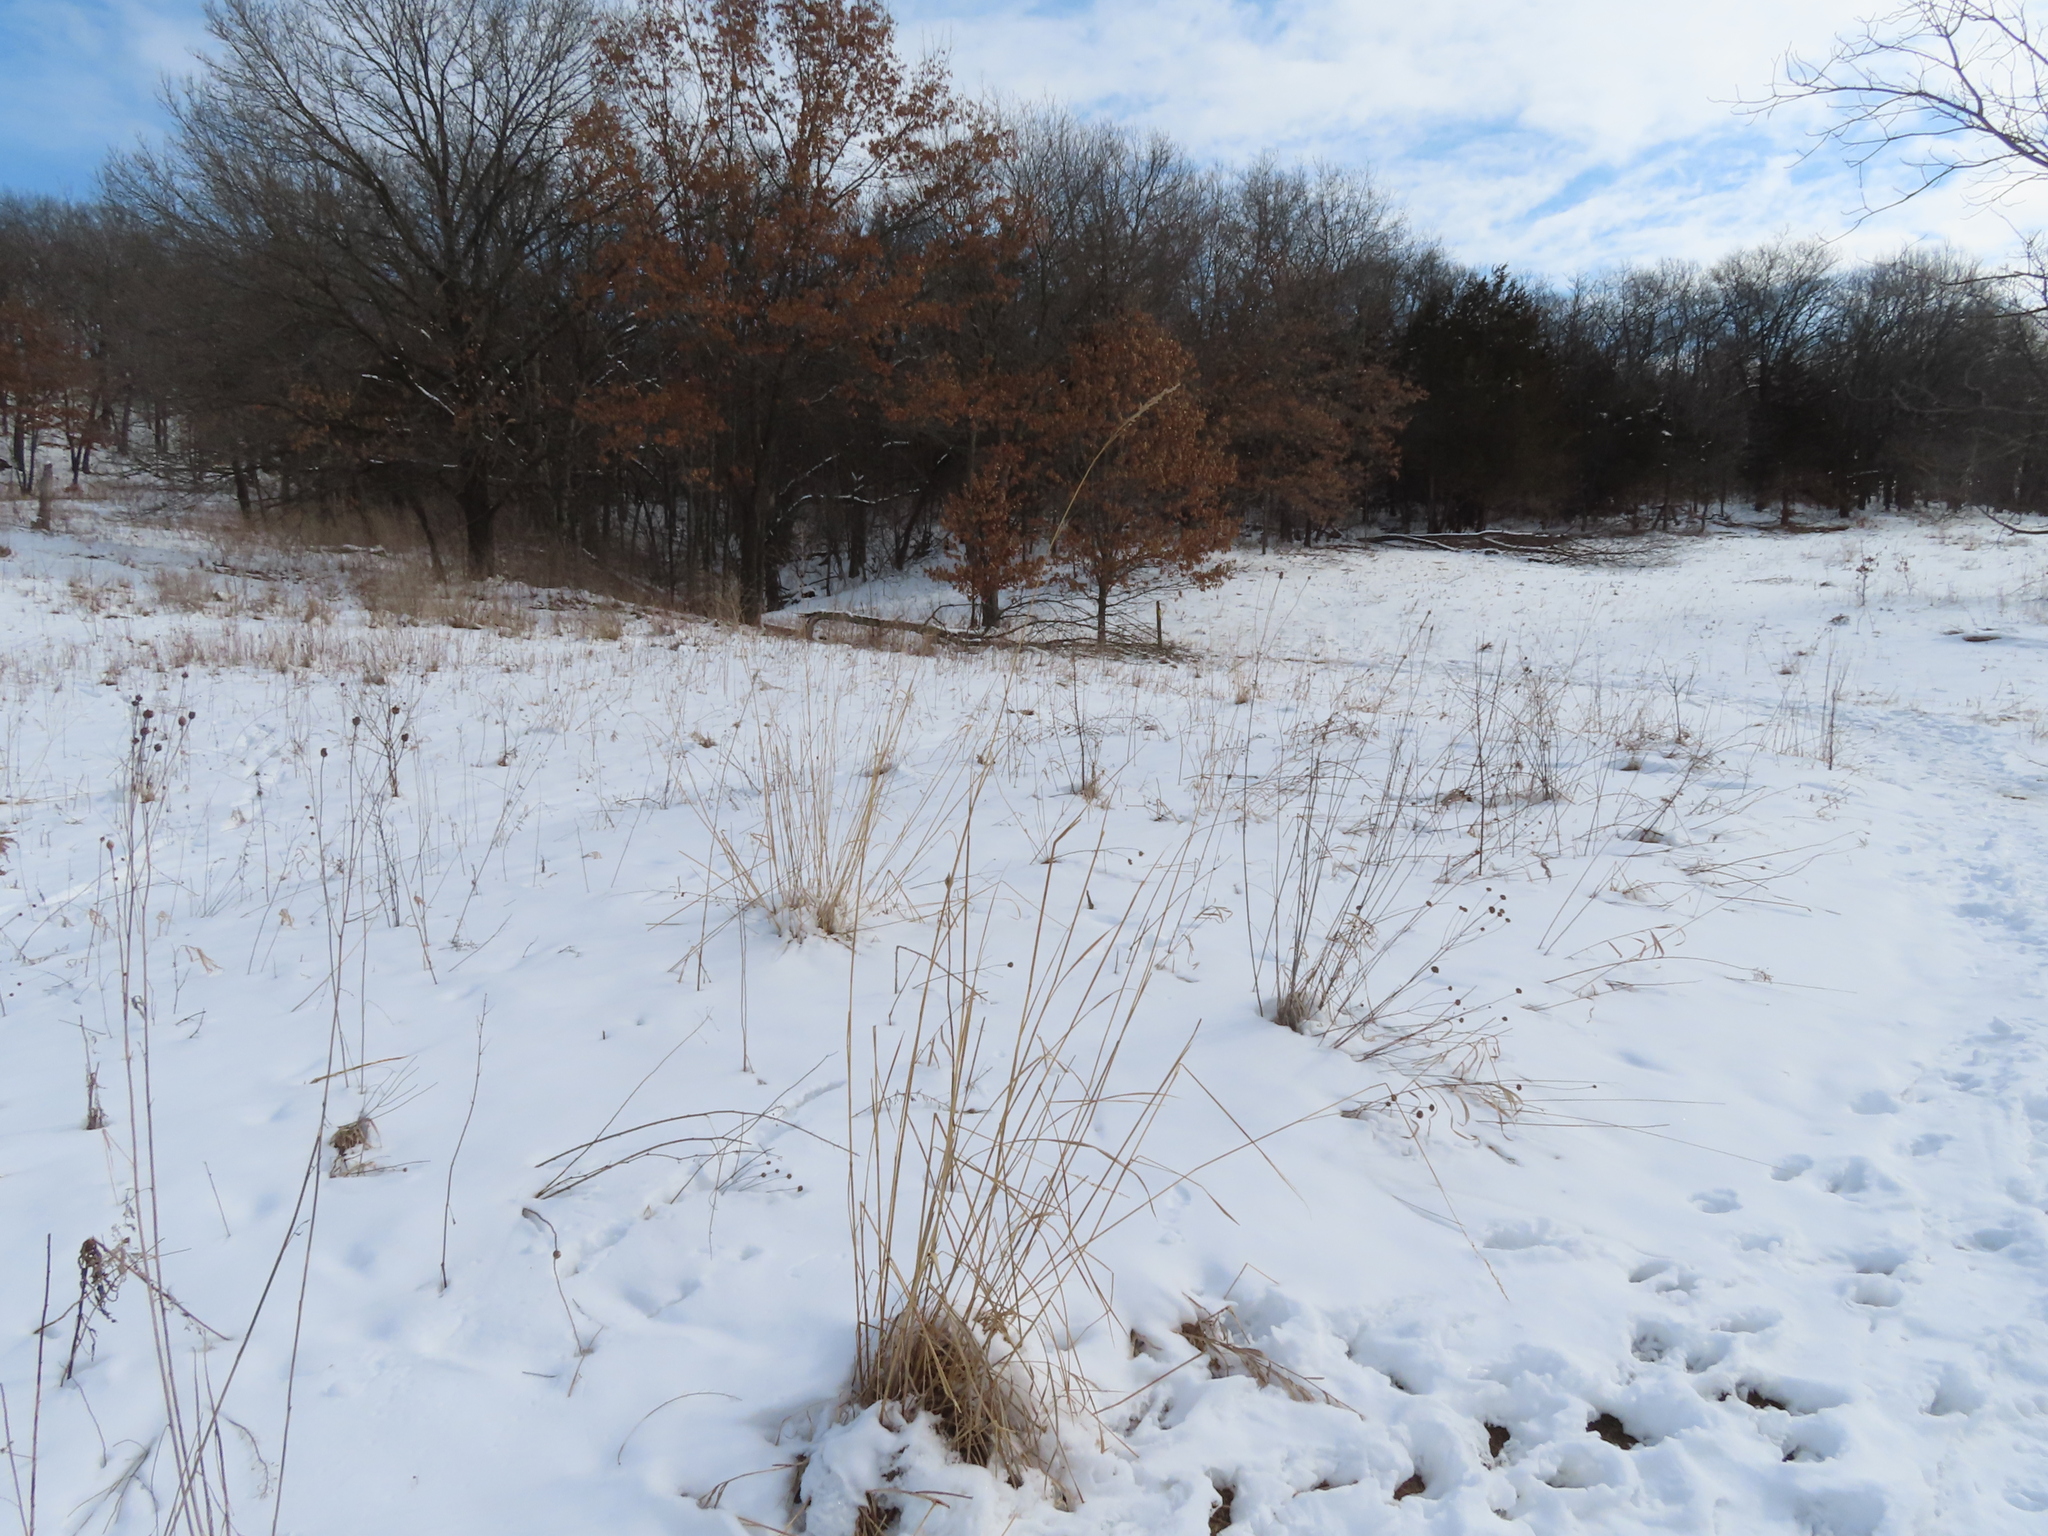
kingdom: Plantae
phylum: Tracheophyta
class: Liliopsida
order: Poales
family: Poaceae
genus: Sorghastrum
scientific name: Sorghastrum nutans
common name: Indian grass
